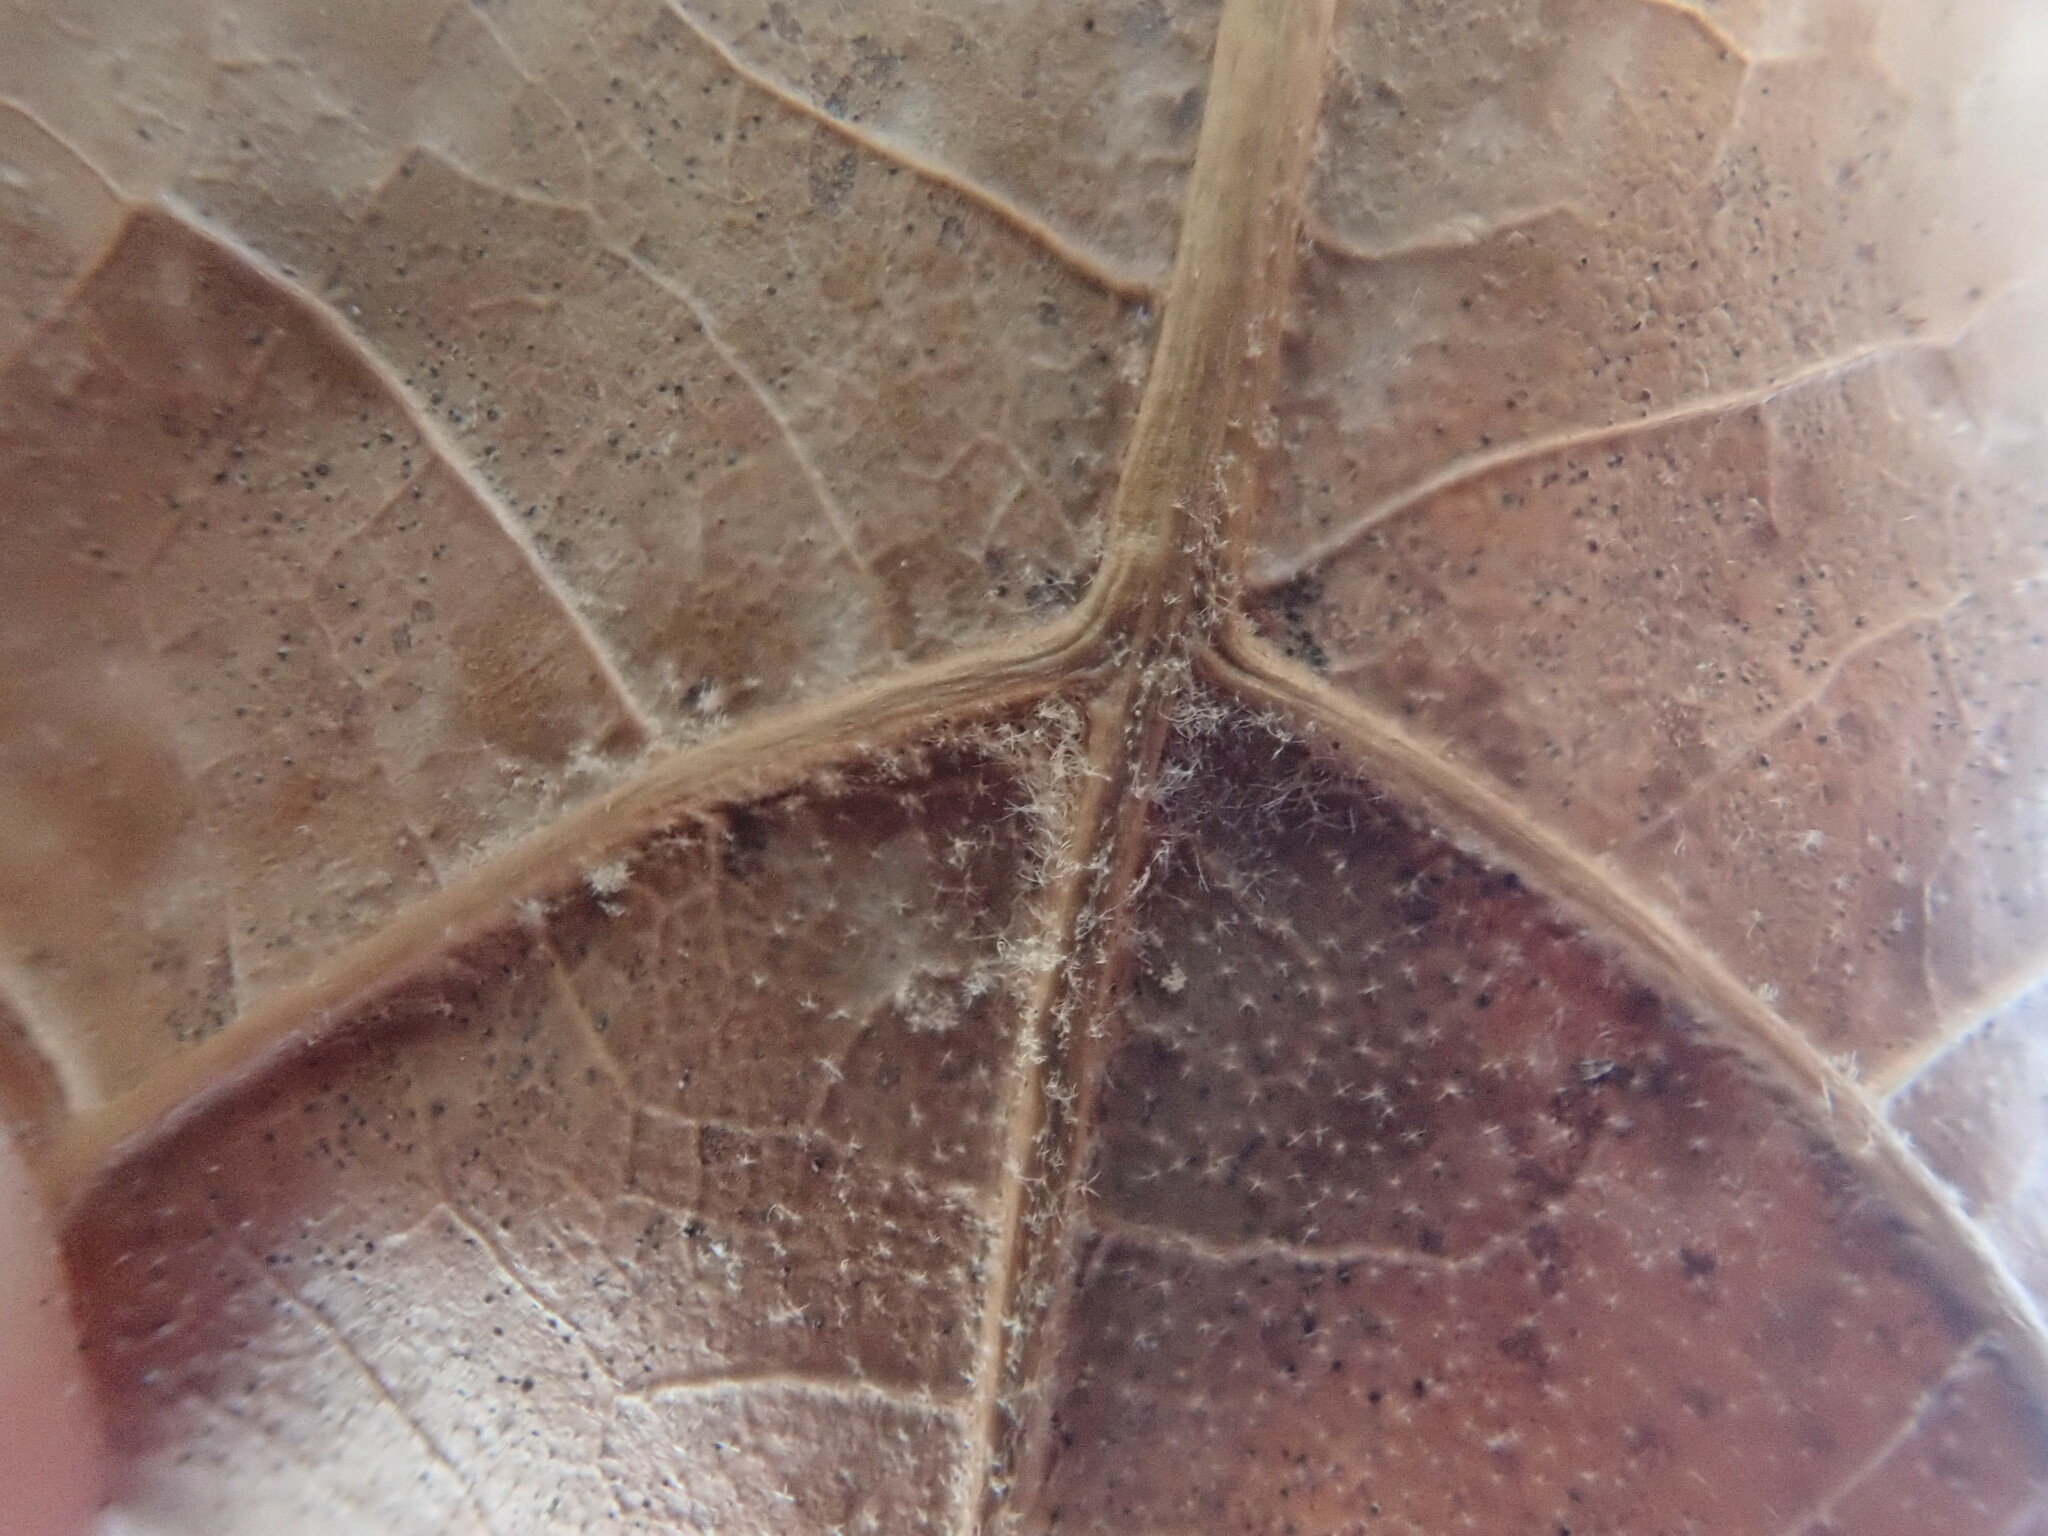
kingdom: Plantae
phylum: Tracheophyta
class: Magnoliopsida
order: Fagales
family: Fagaceae
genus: Quercus
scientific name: Quercus velutina
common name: Black oak
